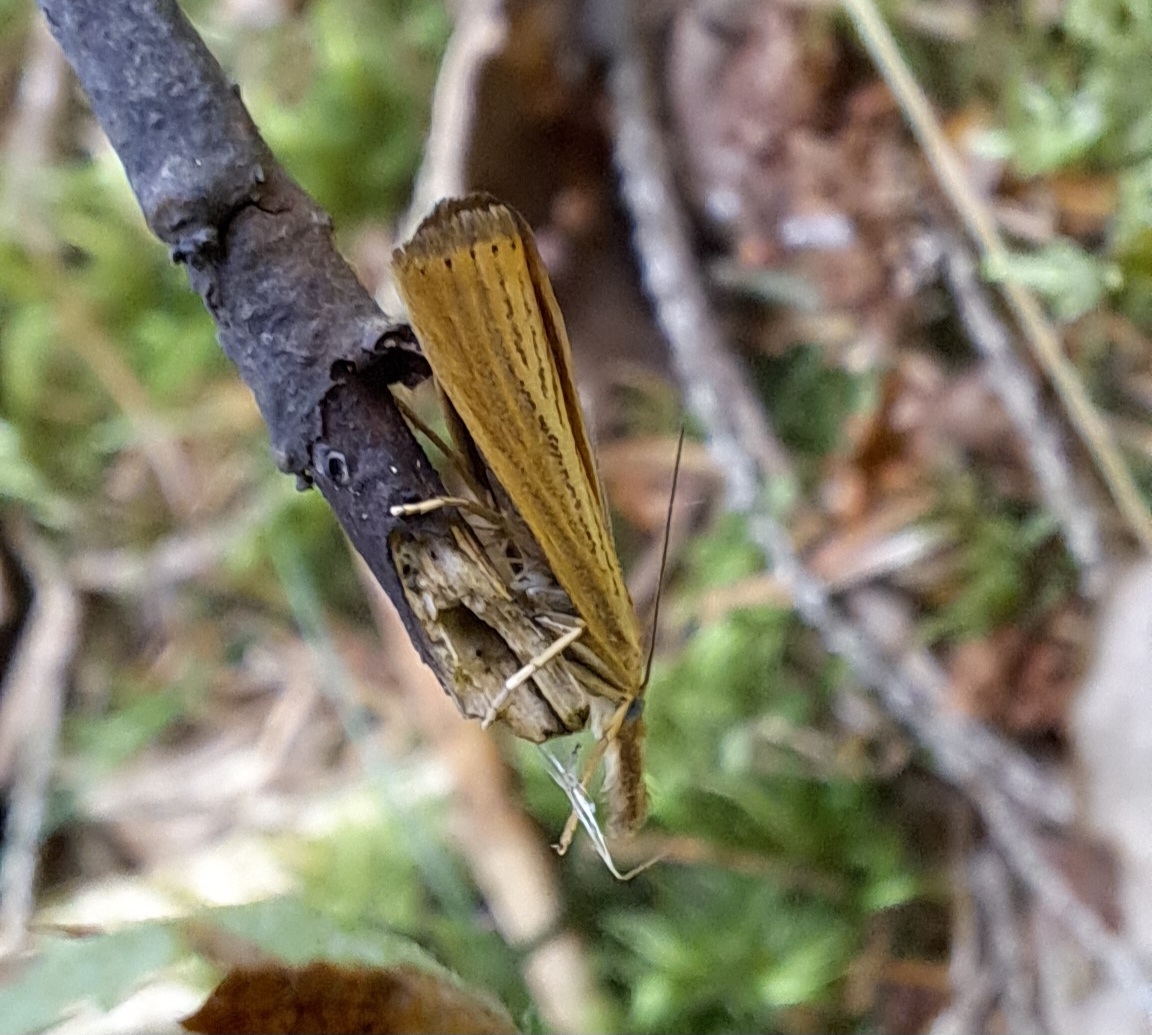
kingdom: Animalia
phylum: Arthropoda
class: Insecta
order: Lepidoptera
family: Crambidae
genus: Agriphila
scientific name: Agriphila straminella
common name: Straw grass-veneer
